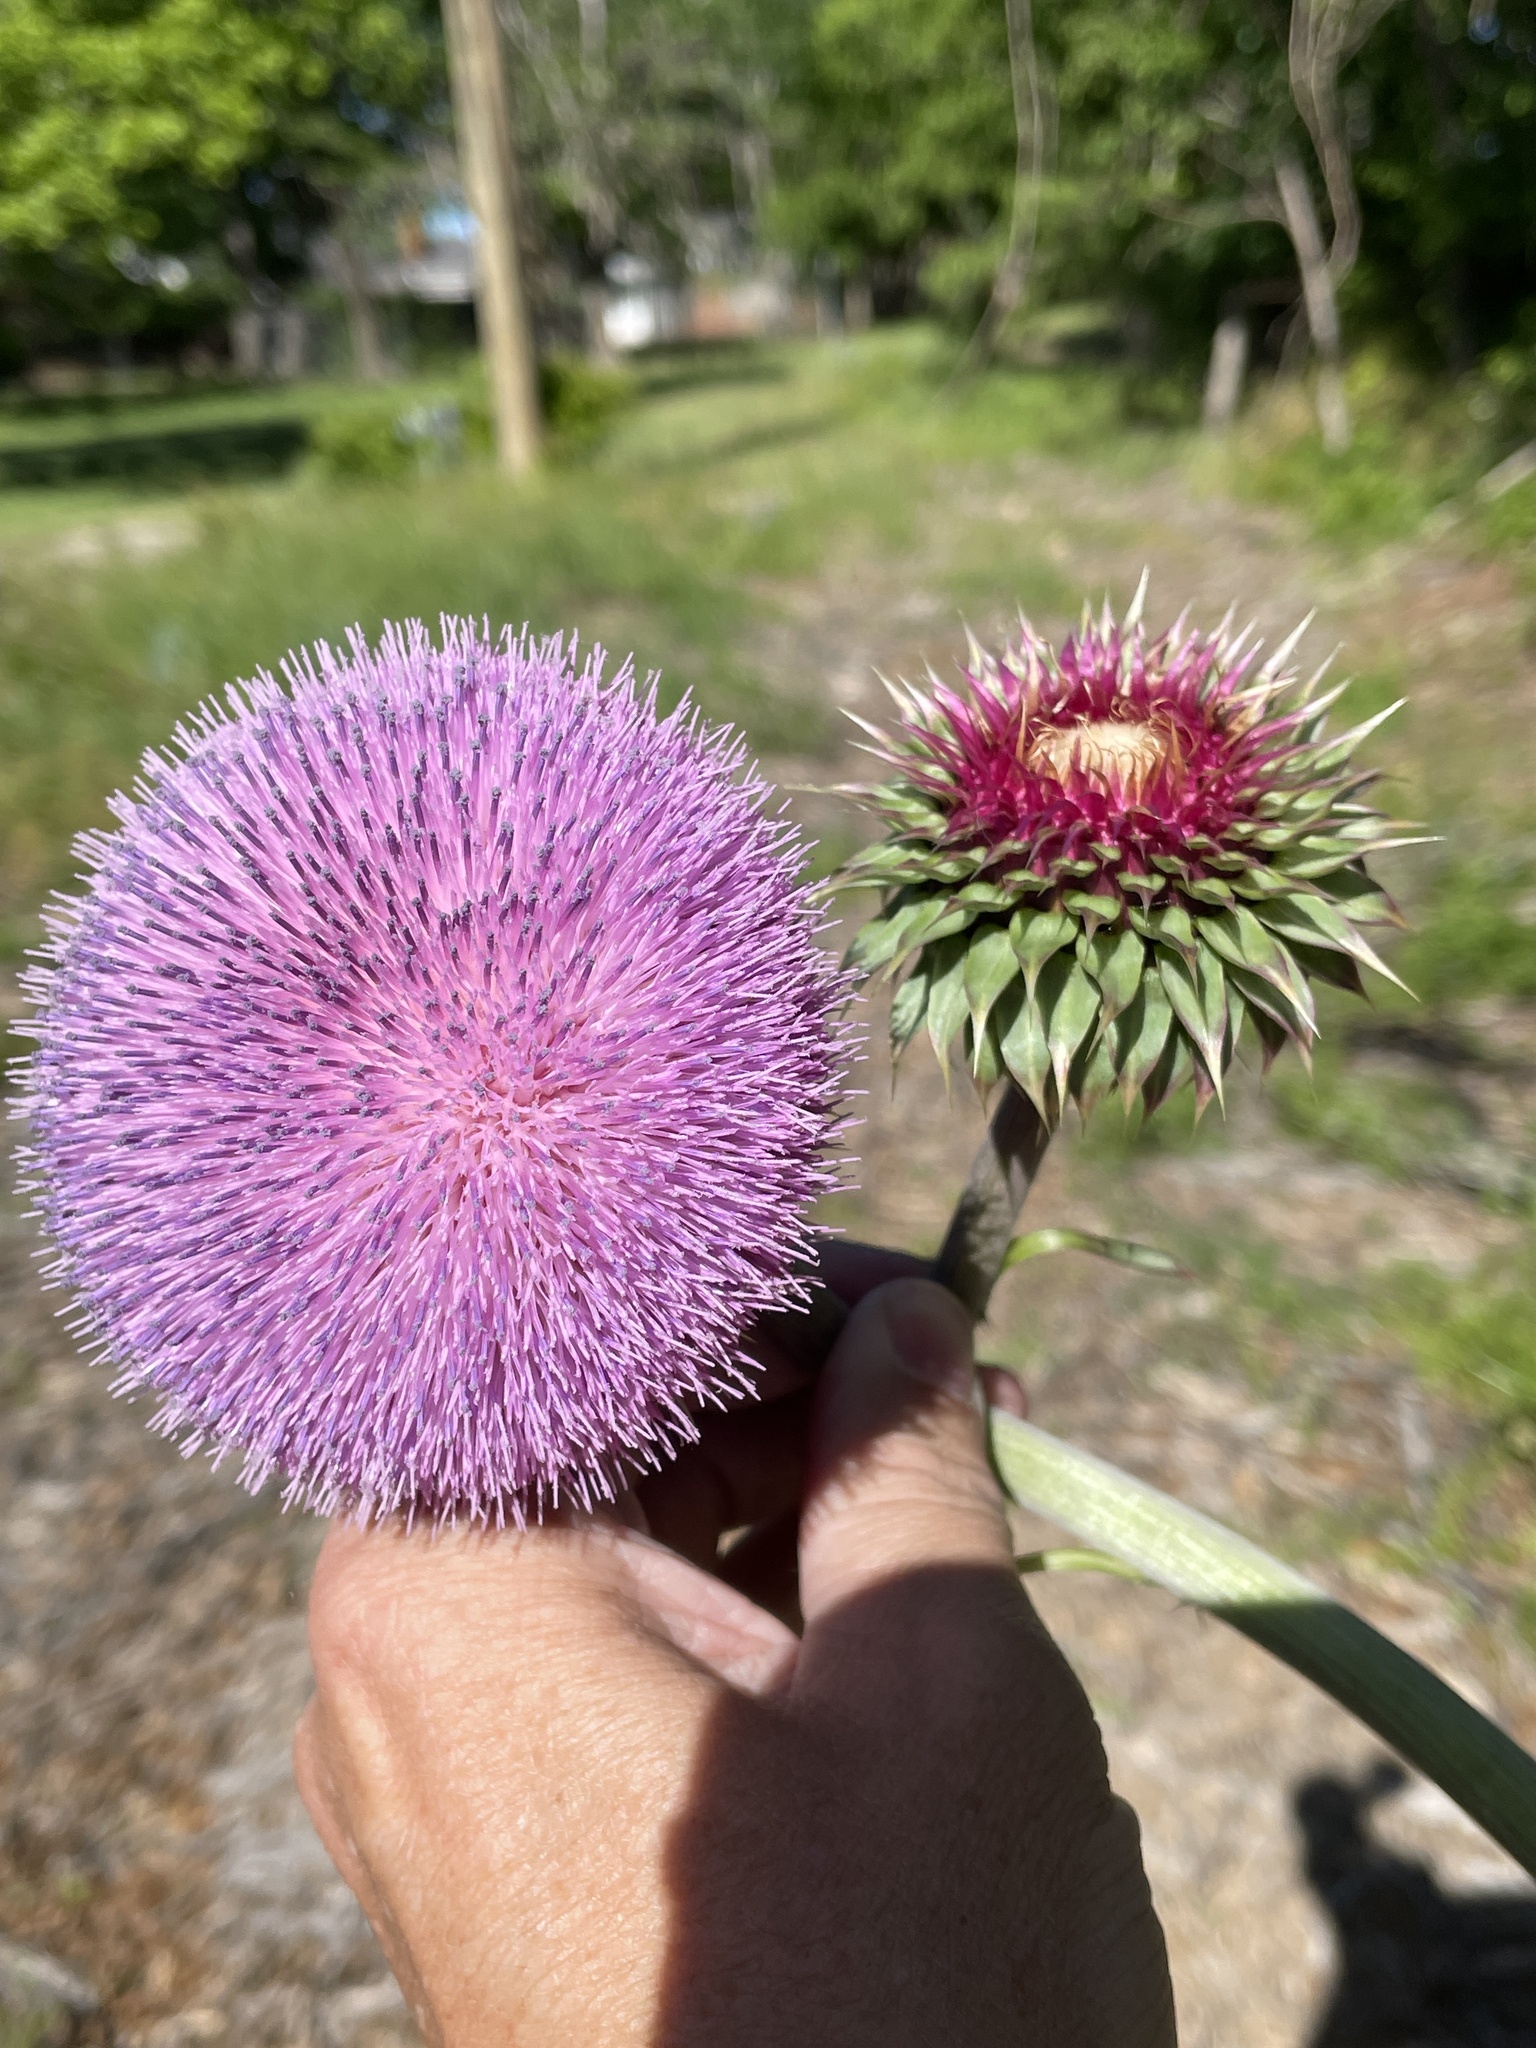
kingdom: Plantae
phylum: Tracheophyta
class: Magnoliopsida
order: Asterales
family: Asteraceae
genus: Carduus
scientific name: Carduus nutans
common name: Musk thistle
